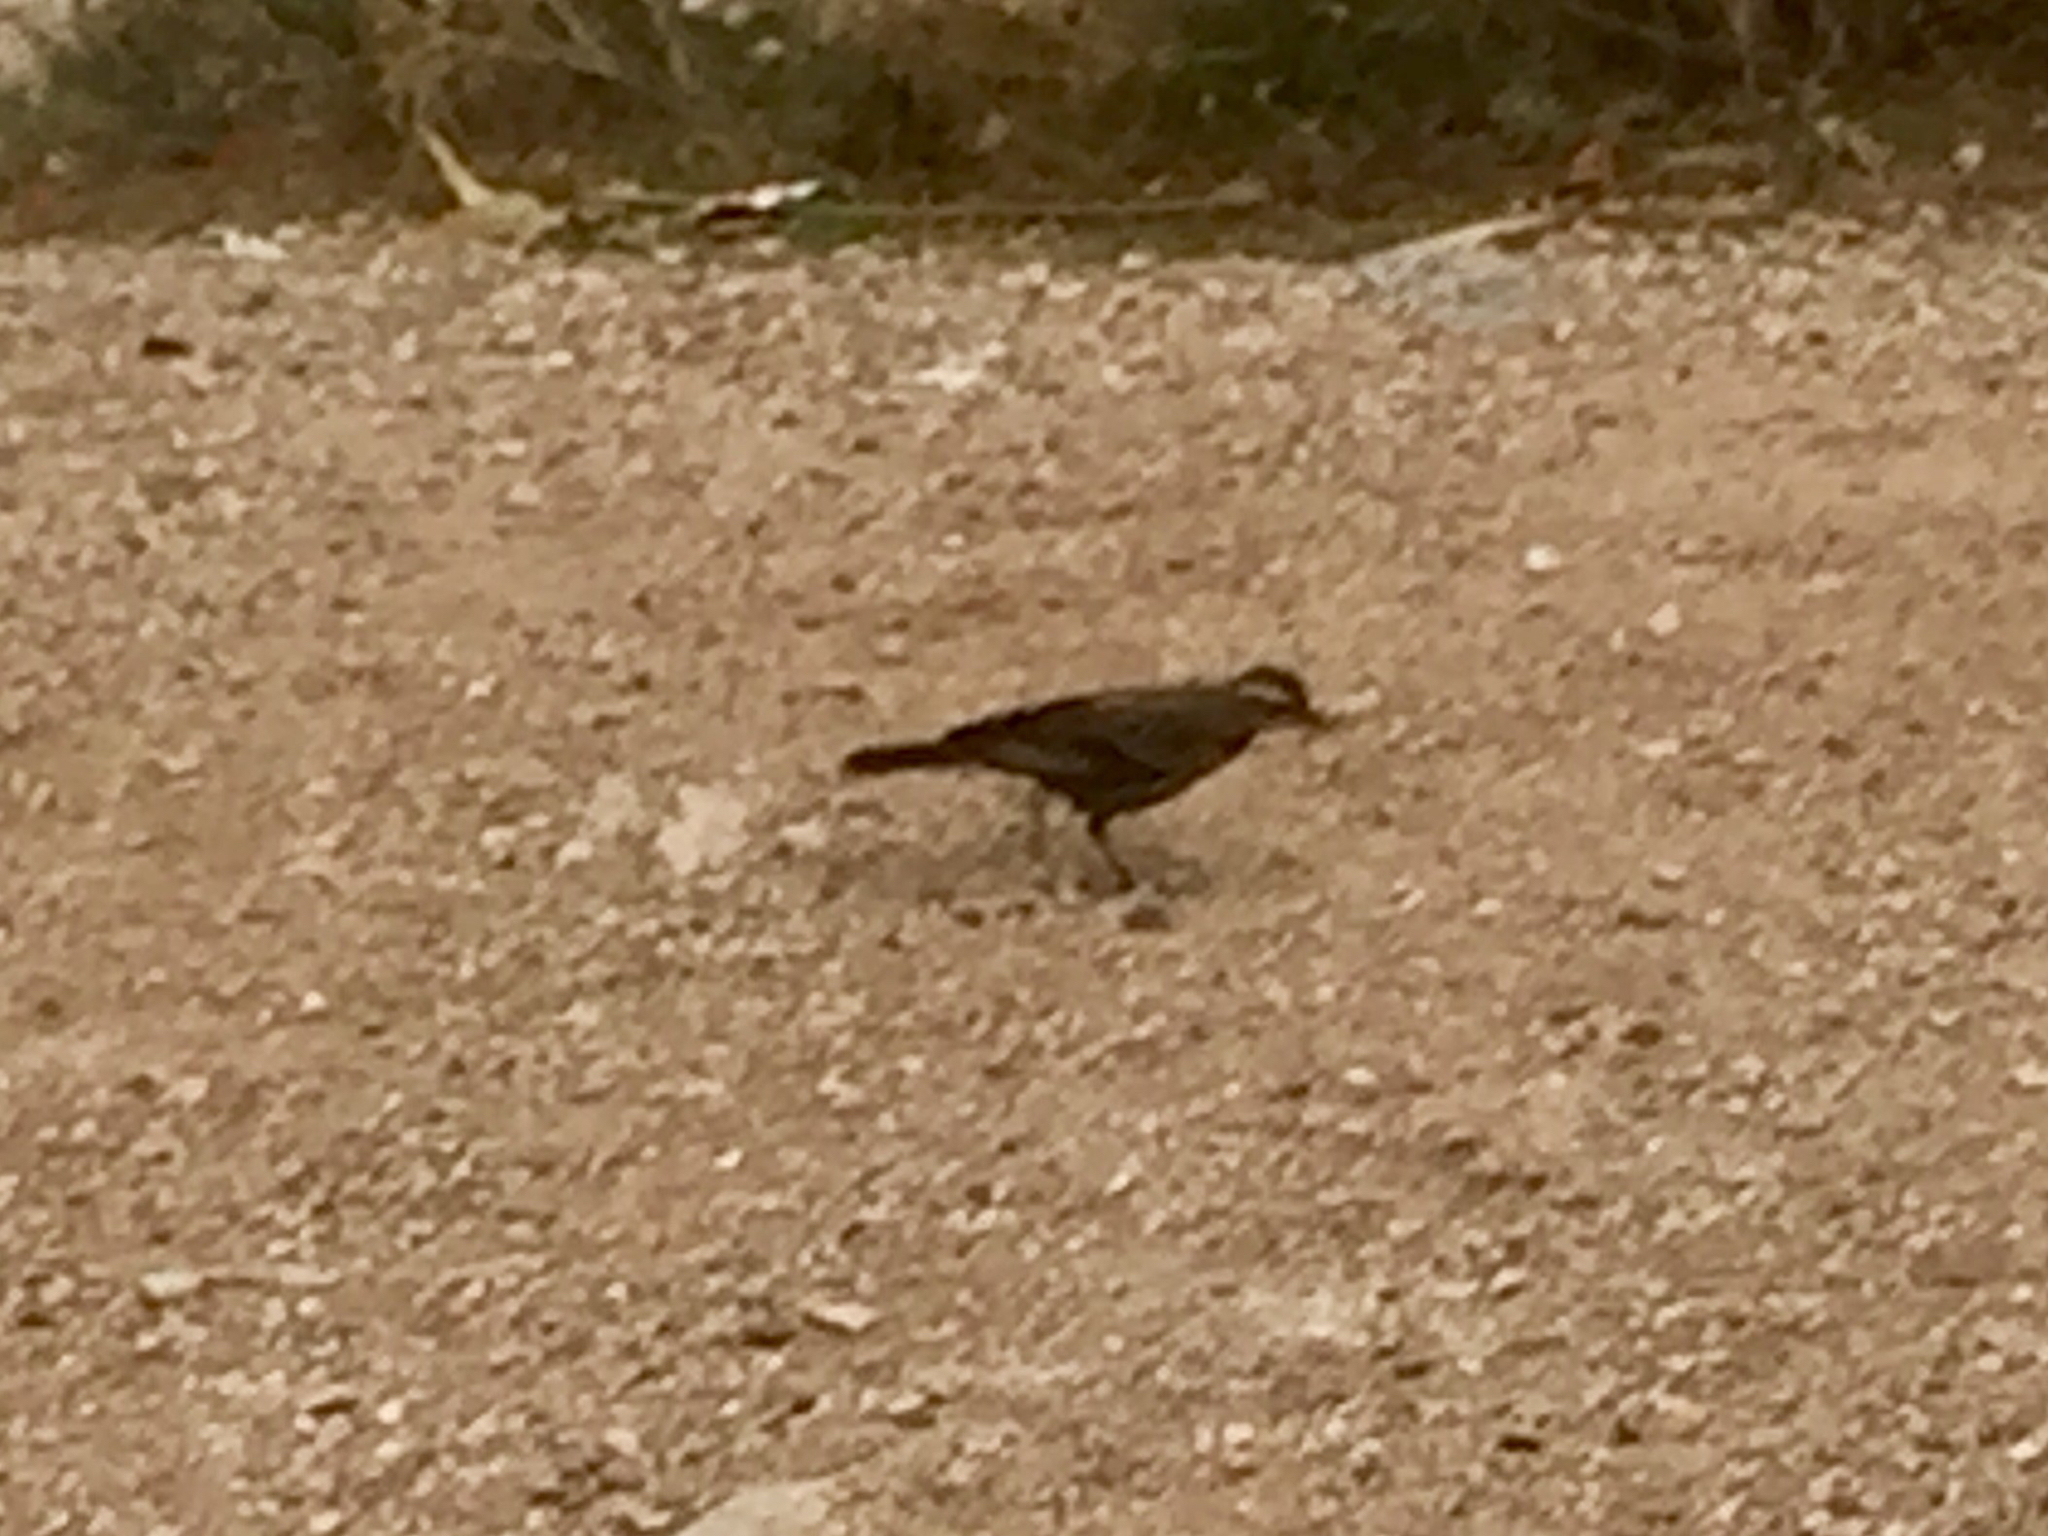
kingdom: Animalia
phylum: Chordata
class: Aves
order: Passeriformes
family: Icteridae
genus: Agelaius
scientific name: Agelaius phoeniceus
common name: Red-winged blackbird
